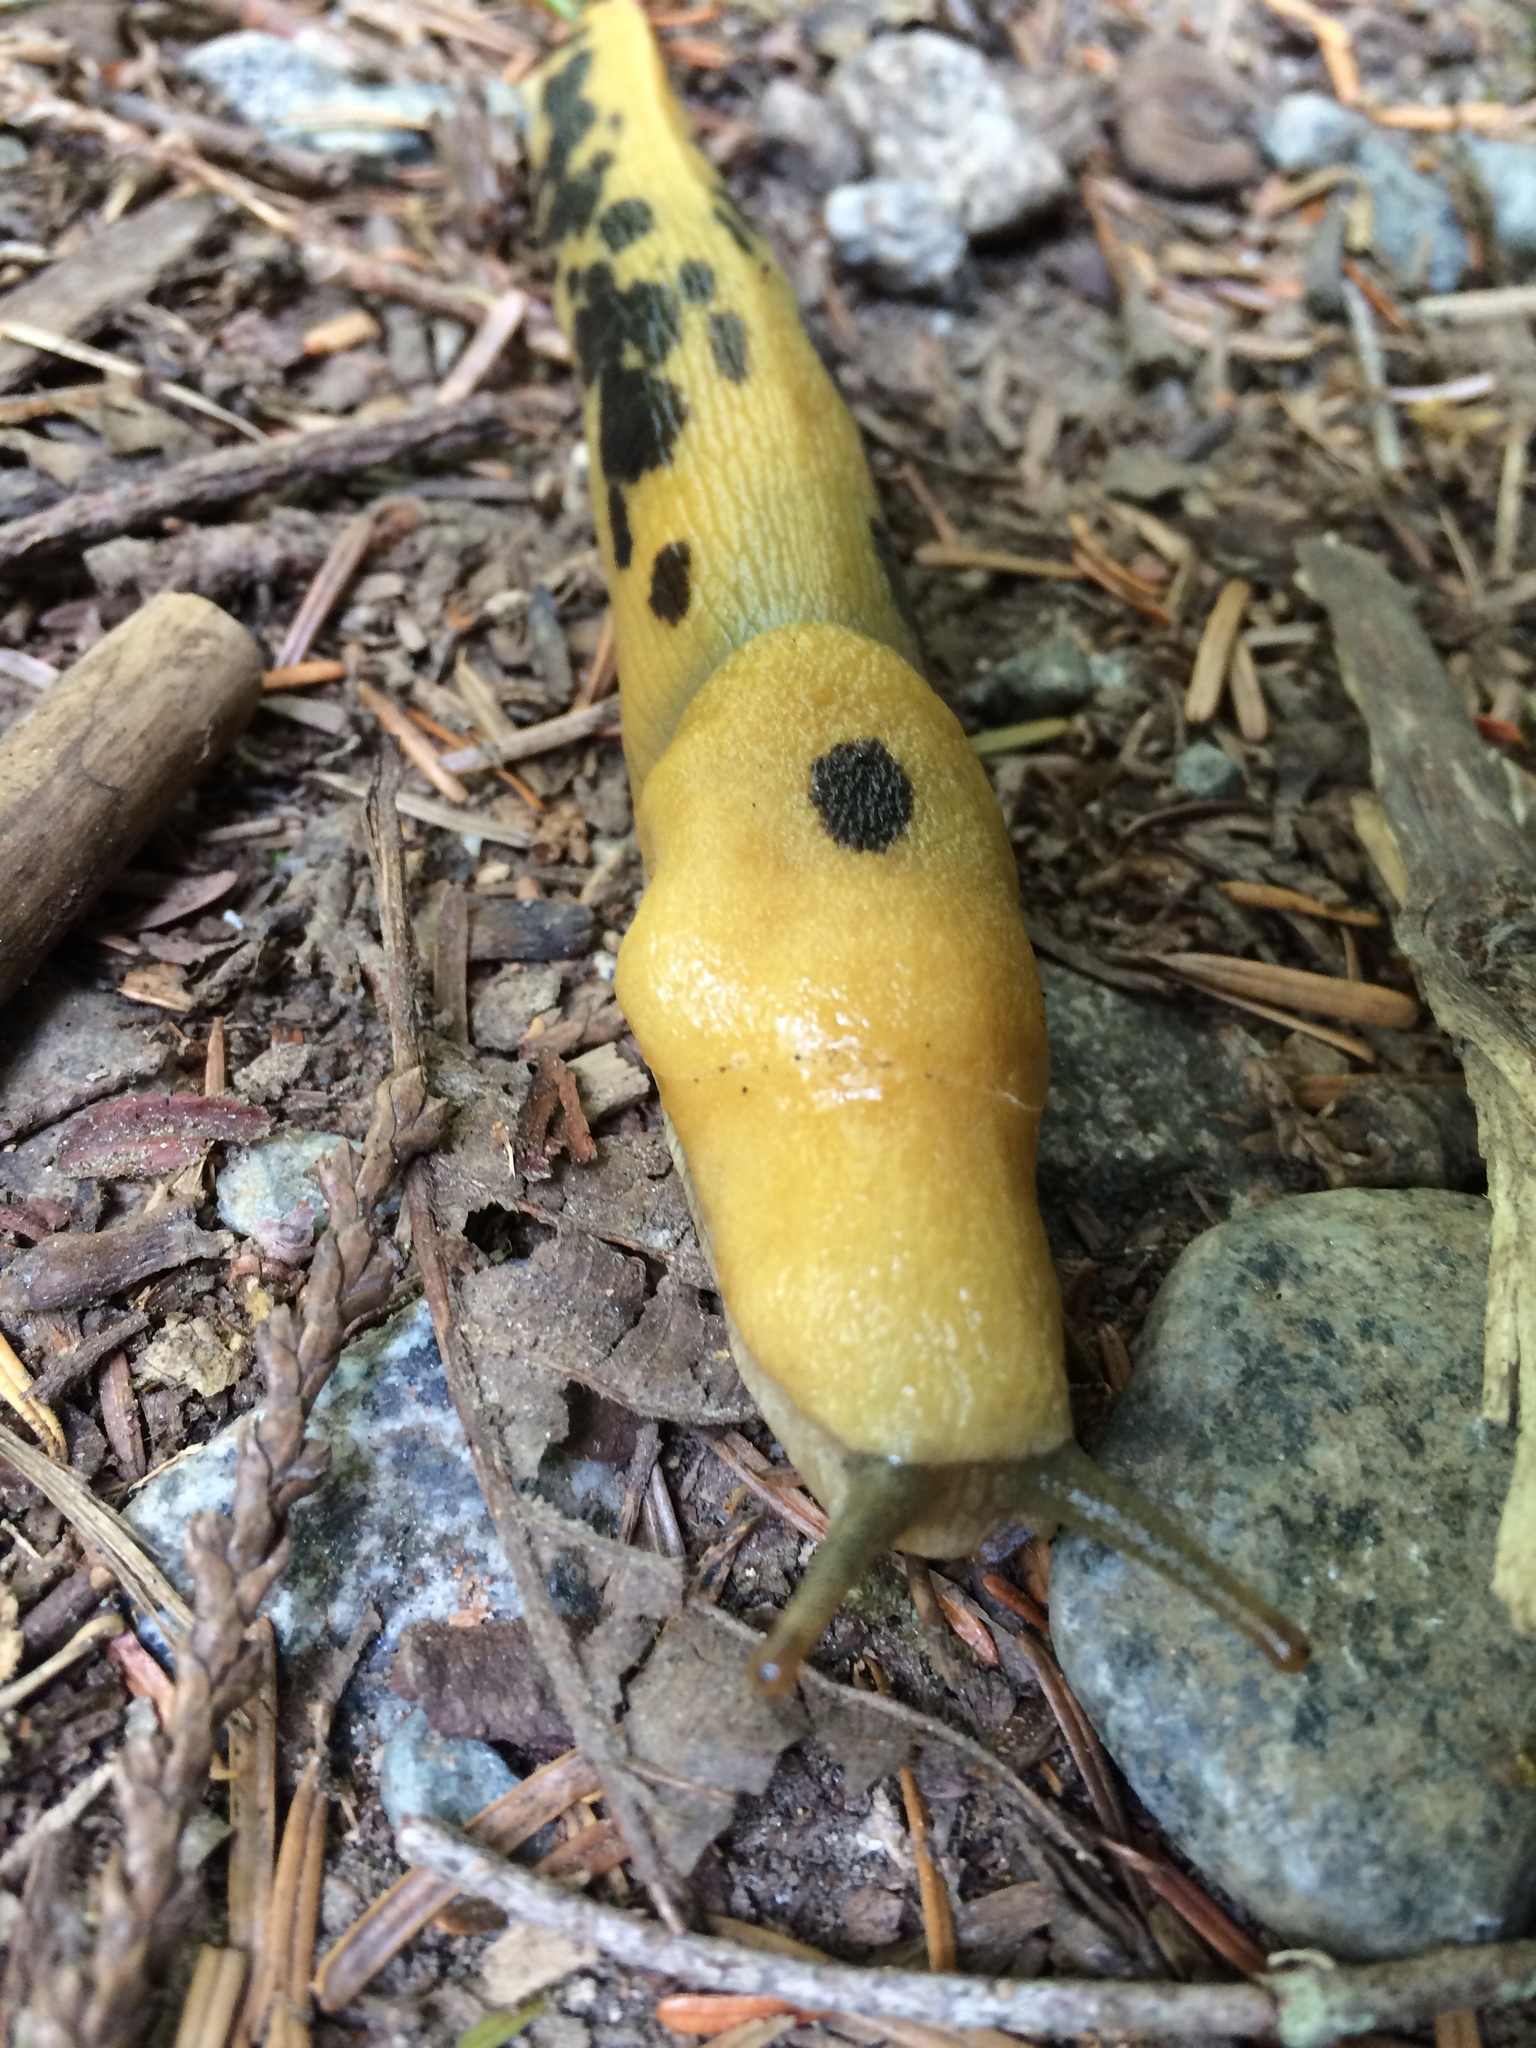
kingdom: Animalia
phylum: Mollusca
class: Gastropoda
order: Stylommatophora
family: Ariolimacidae
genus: Ariolimax
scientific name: Ariolimax columbianus
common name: Pacific banana slug
